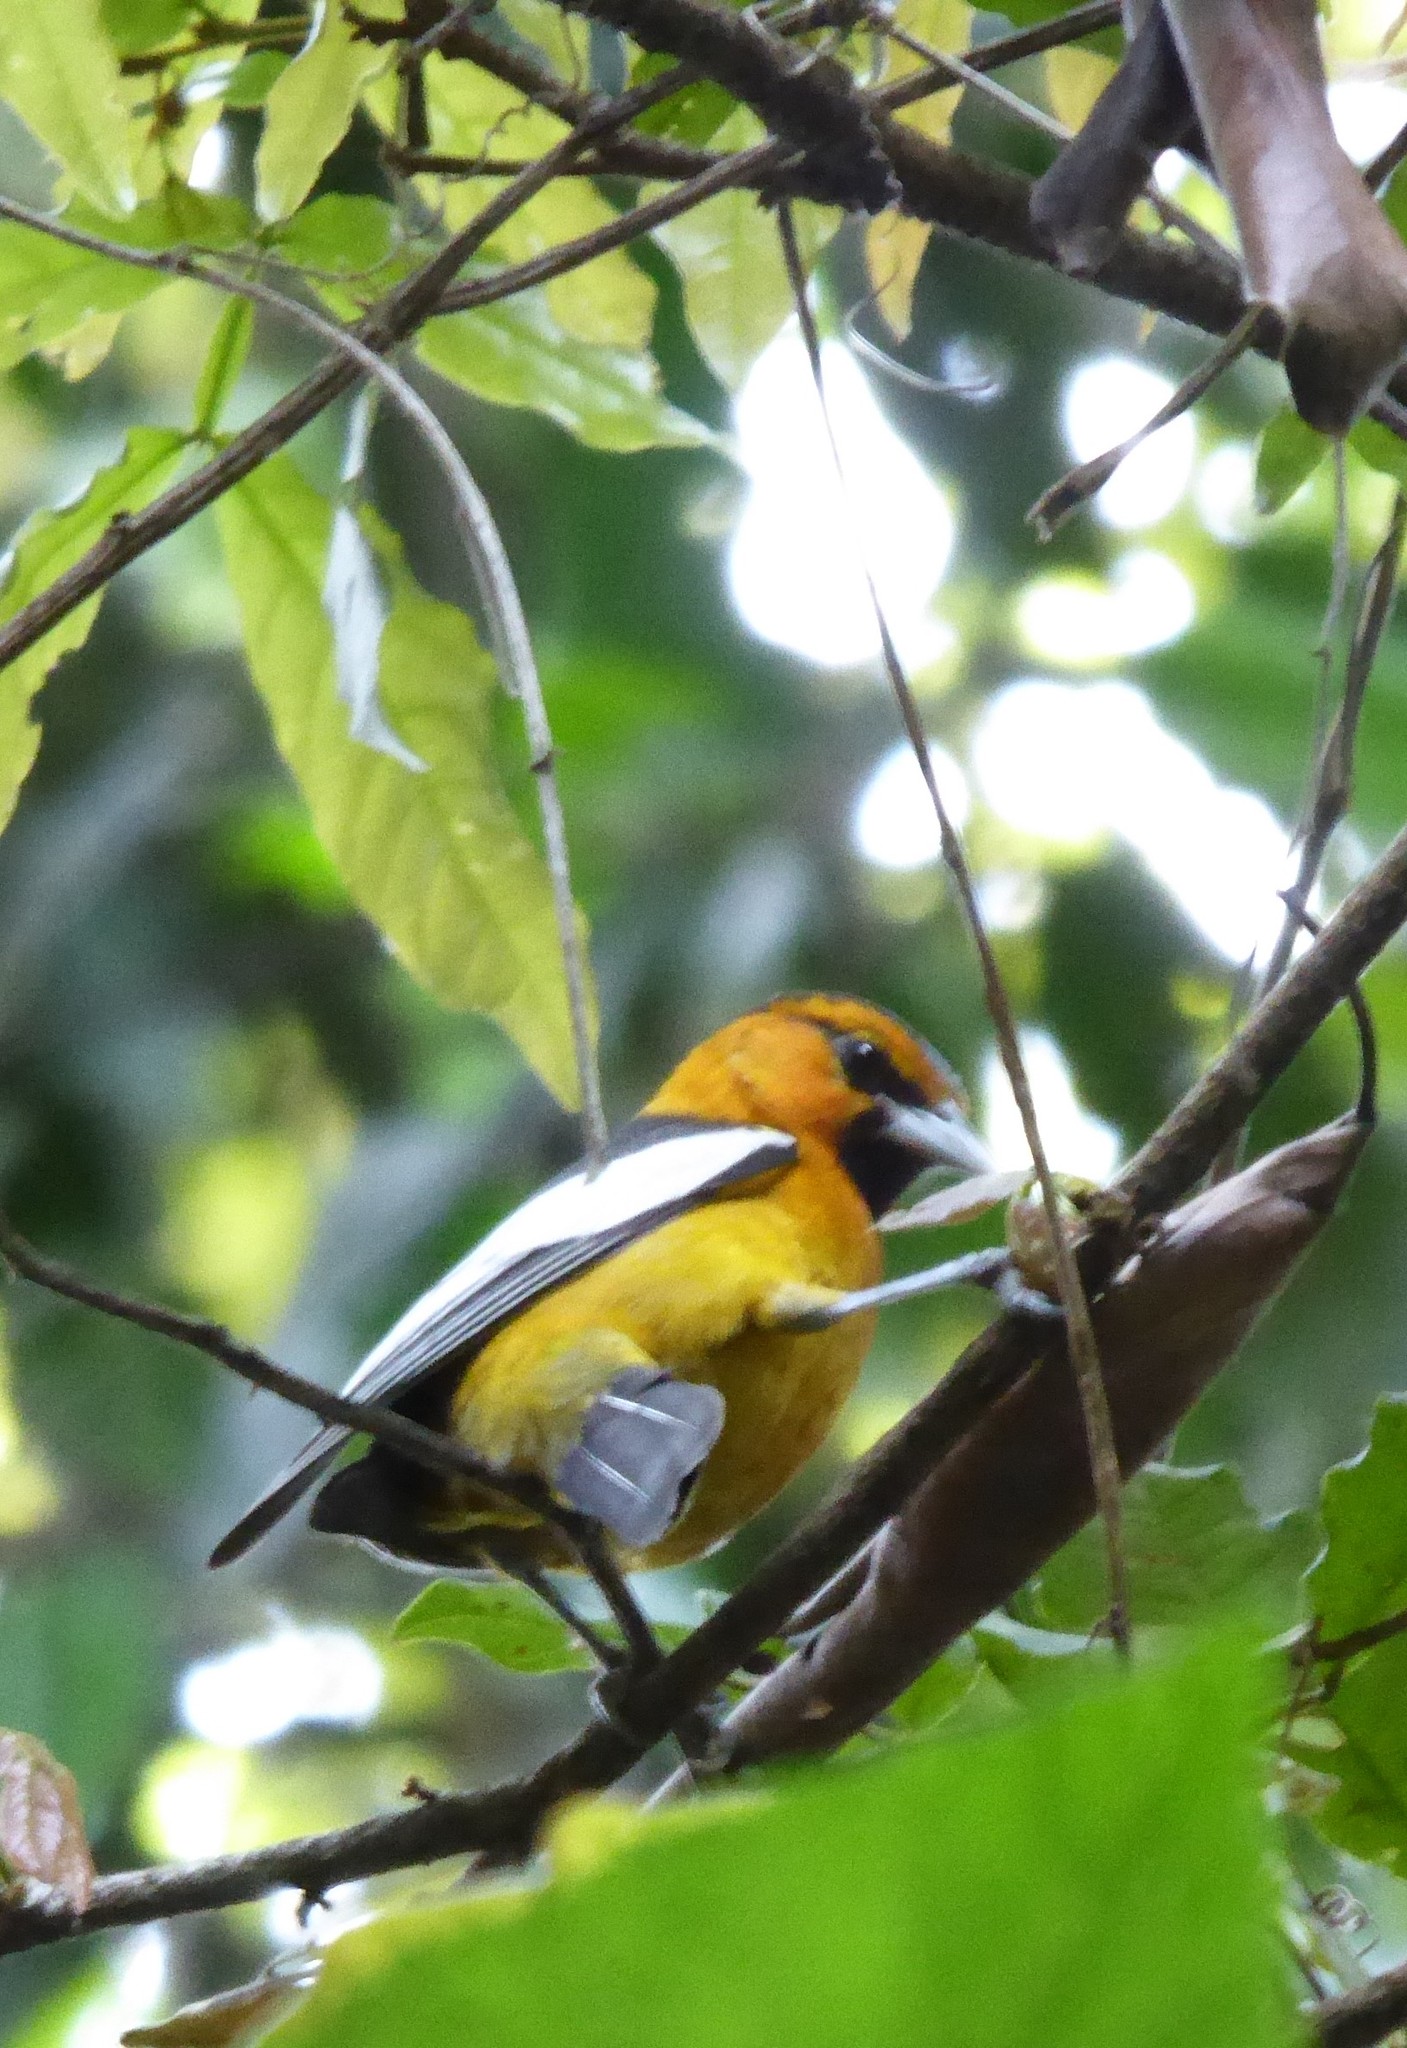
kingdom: Animalia
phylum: Chordata
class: Aves
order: Passeriformes
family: Icteridae
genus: Icterus
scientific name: Icterus bullockii
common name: Bullock's oriole
